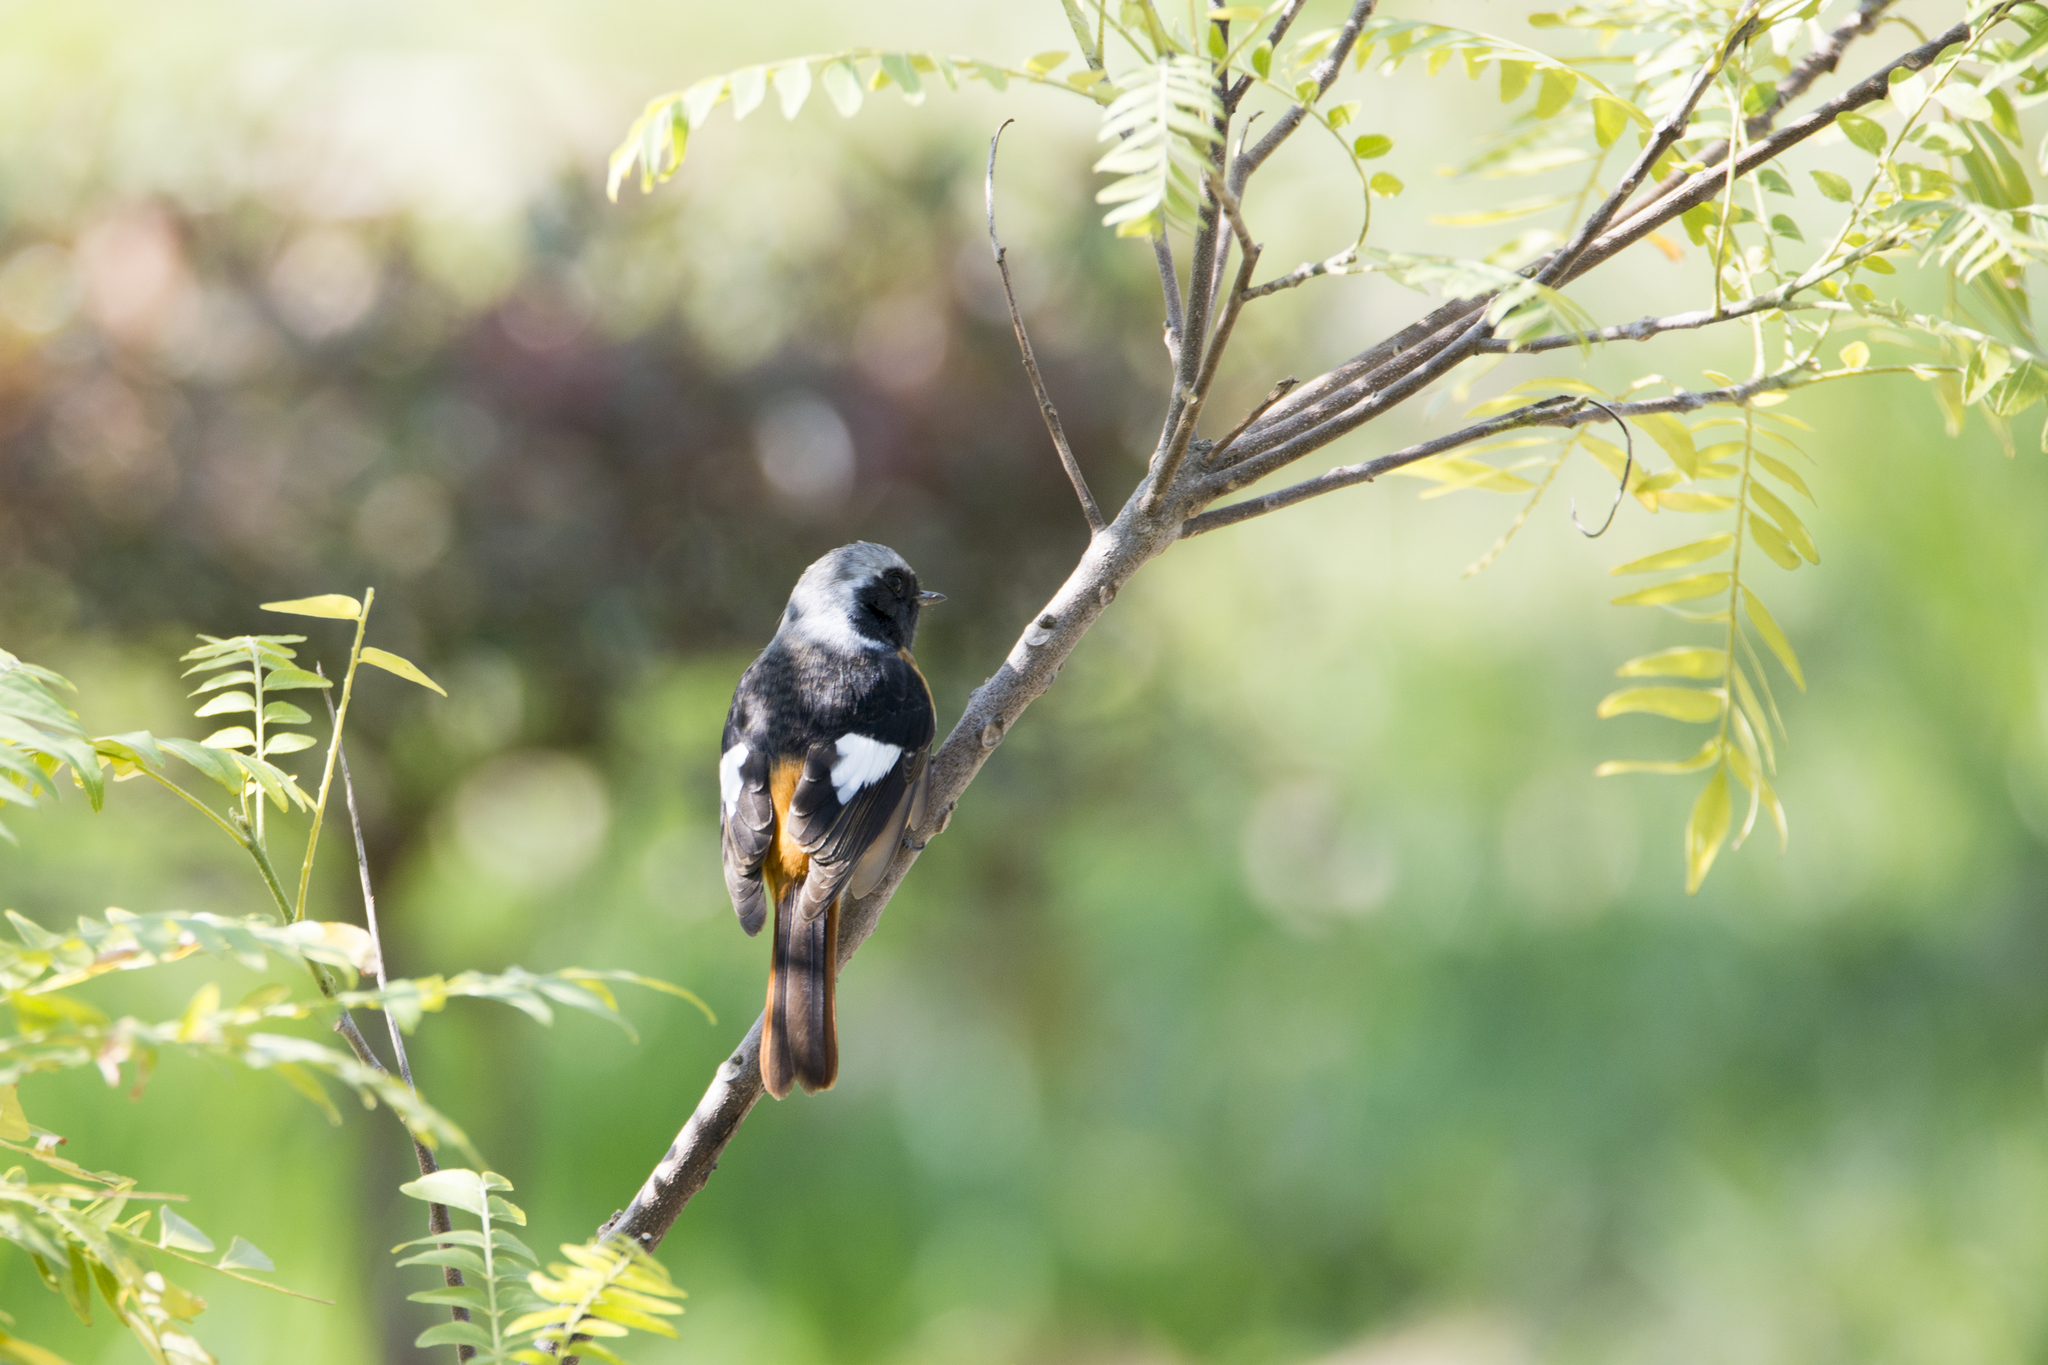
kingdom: Animalia
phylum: Chordata
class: Aves
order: Passeriformes
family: Muscicapidae
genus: Phoenicurus
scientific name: Phoenicurus auroreus
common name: Daurian redstart
